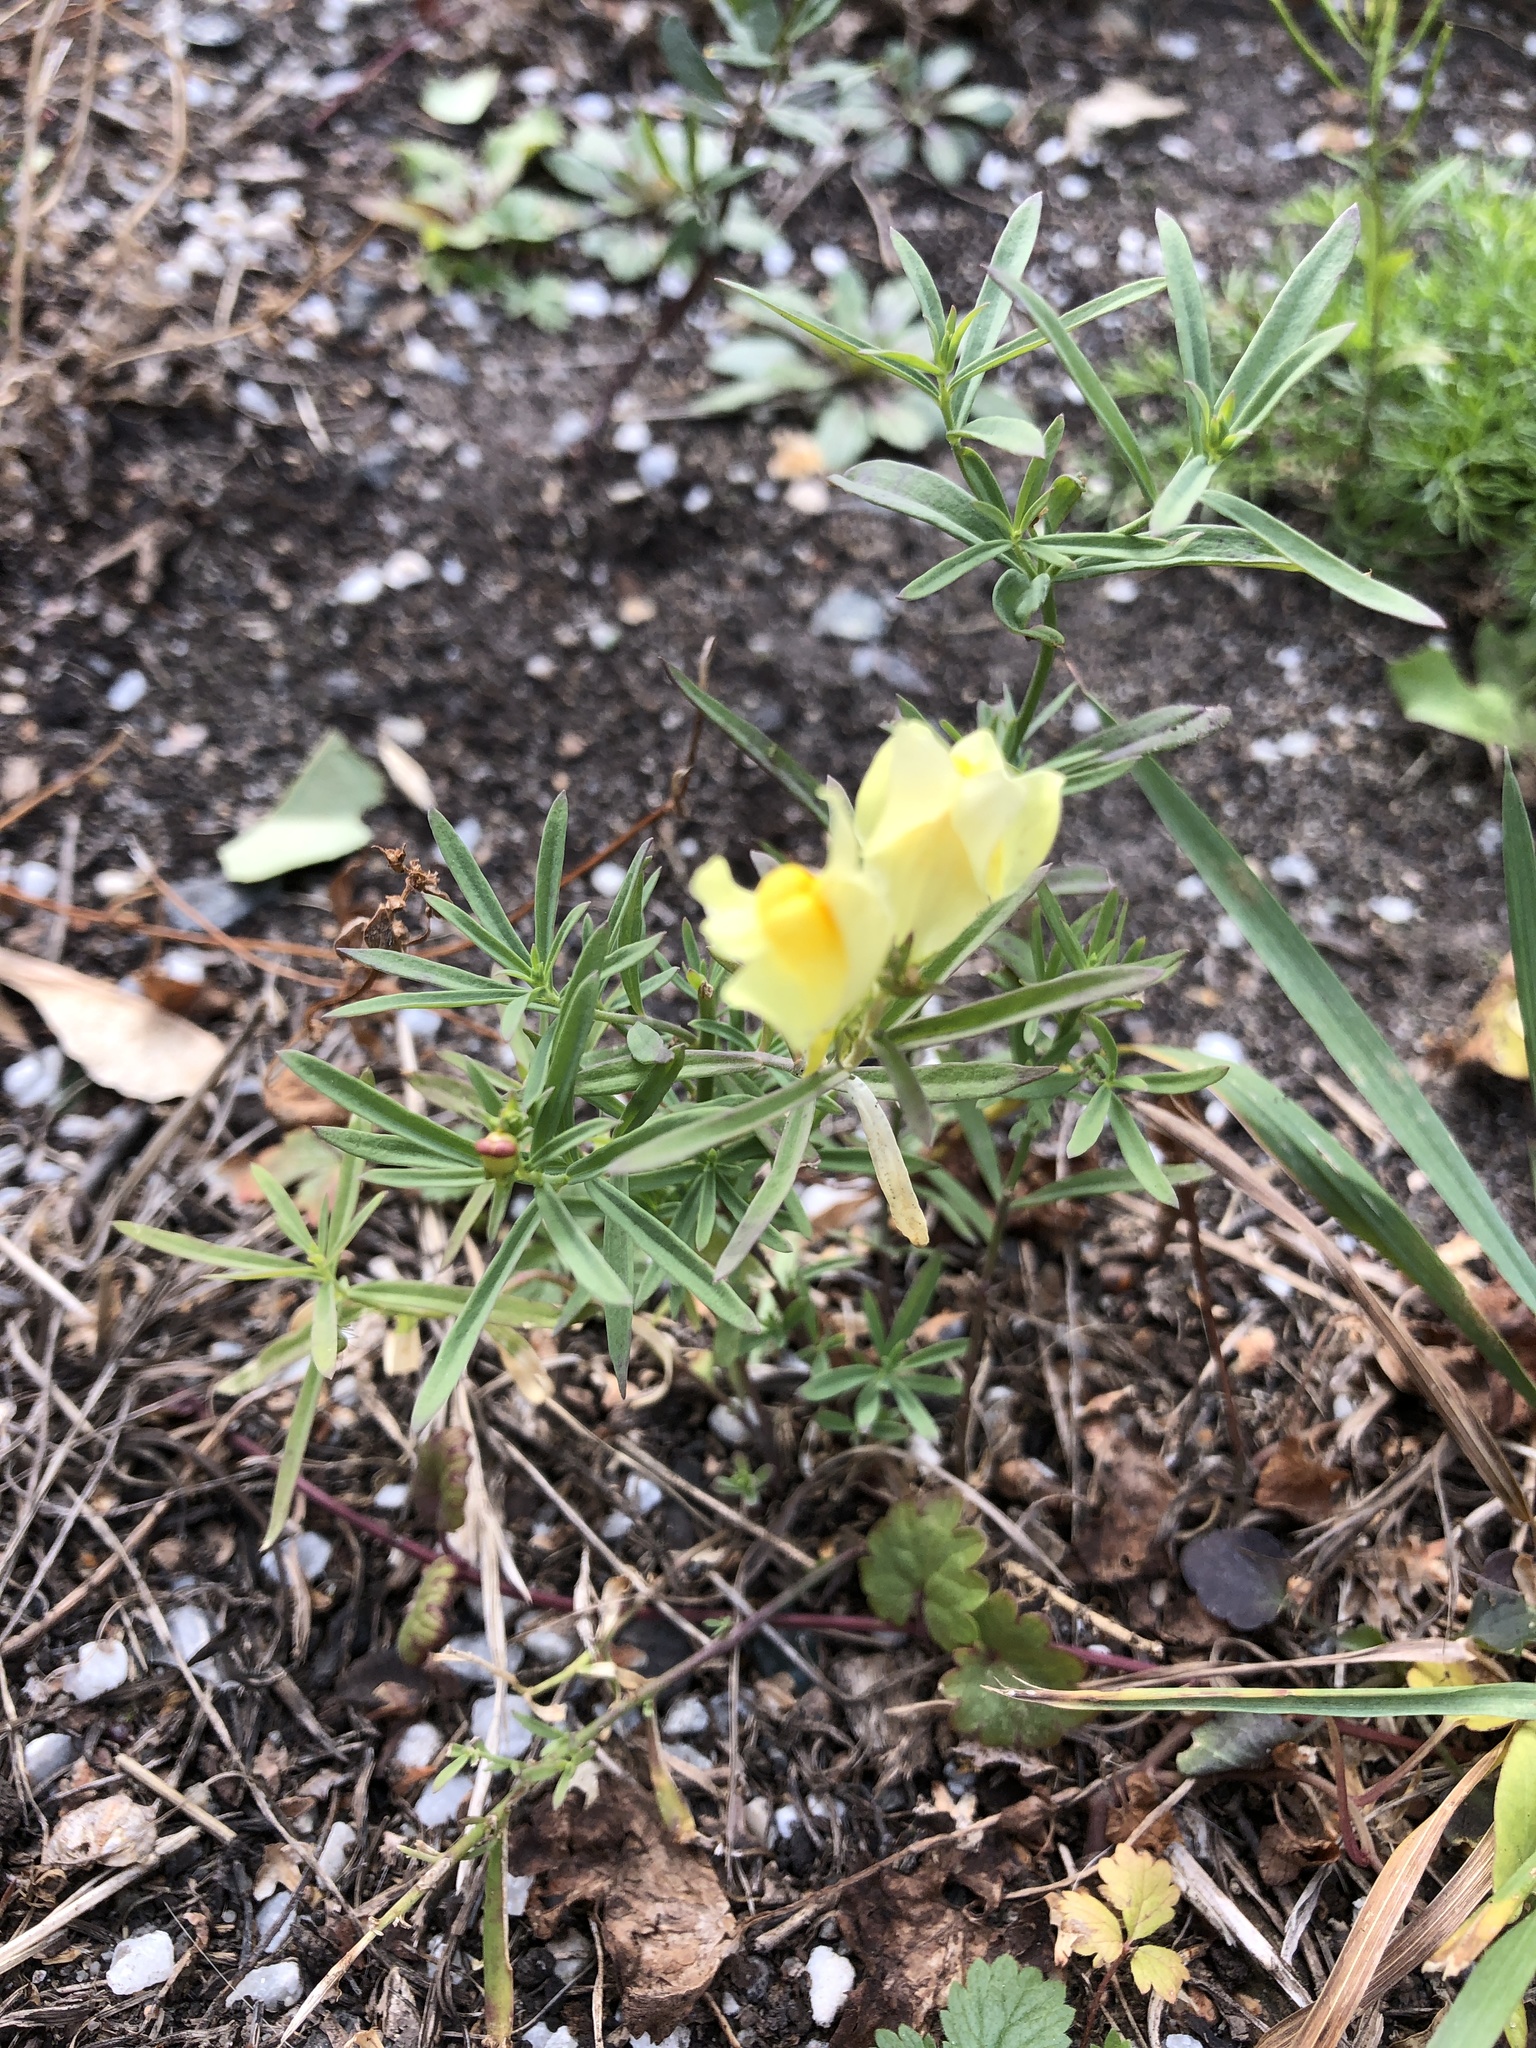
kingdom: Plantae
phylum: Tracheophyta
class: Magnoliopsida
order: Lamiales
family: Plantaginaceae
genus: Linaria
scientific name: Linaria vulgaris
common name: Butter and eggs
